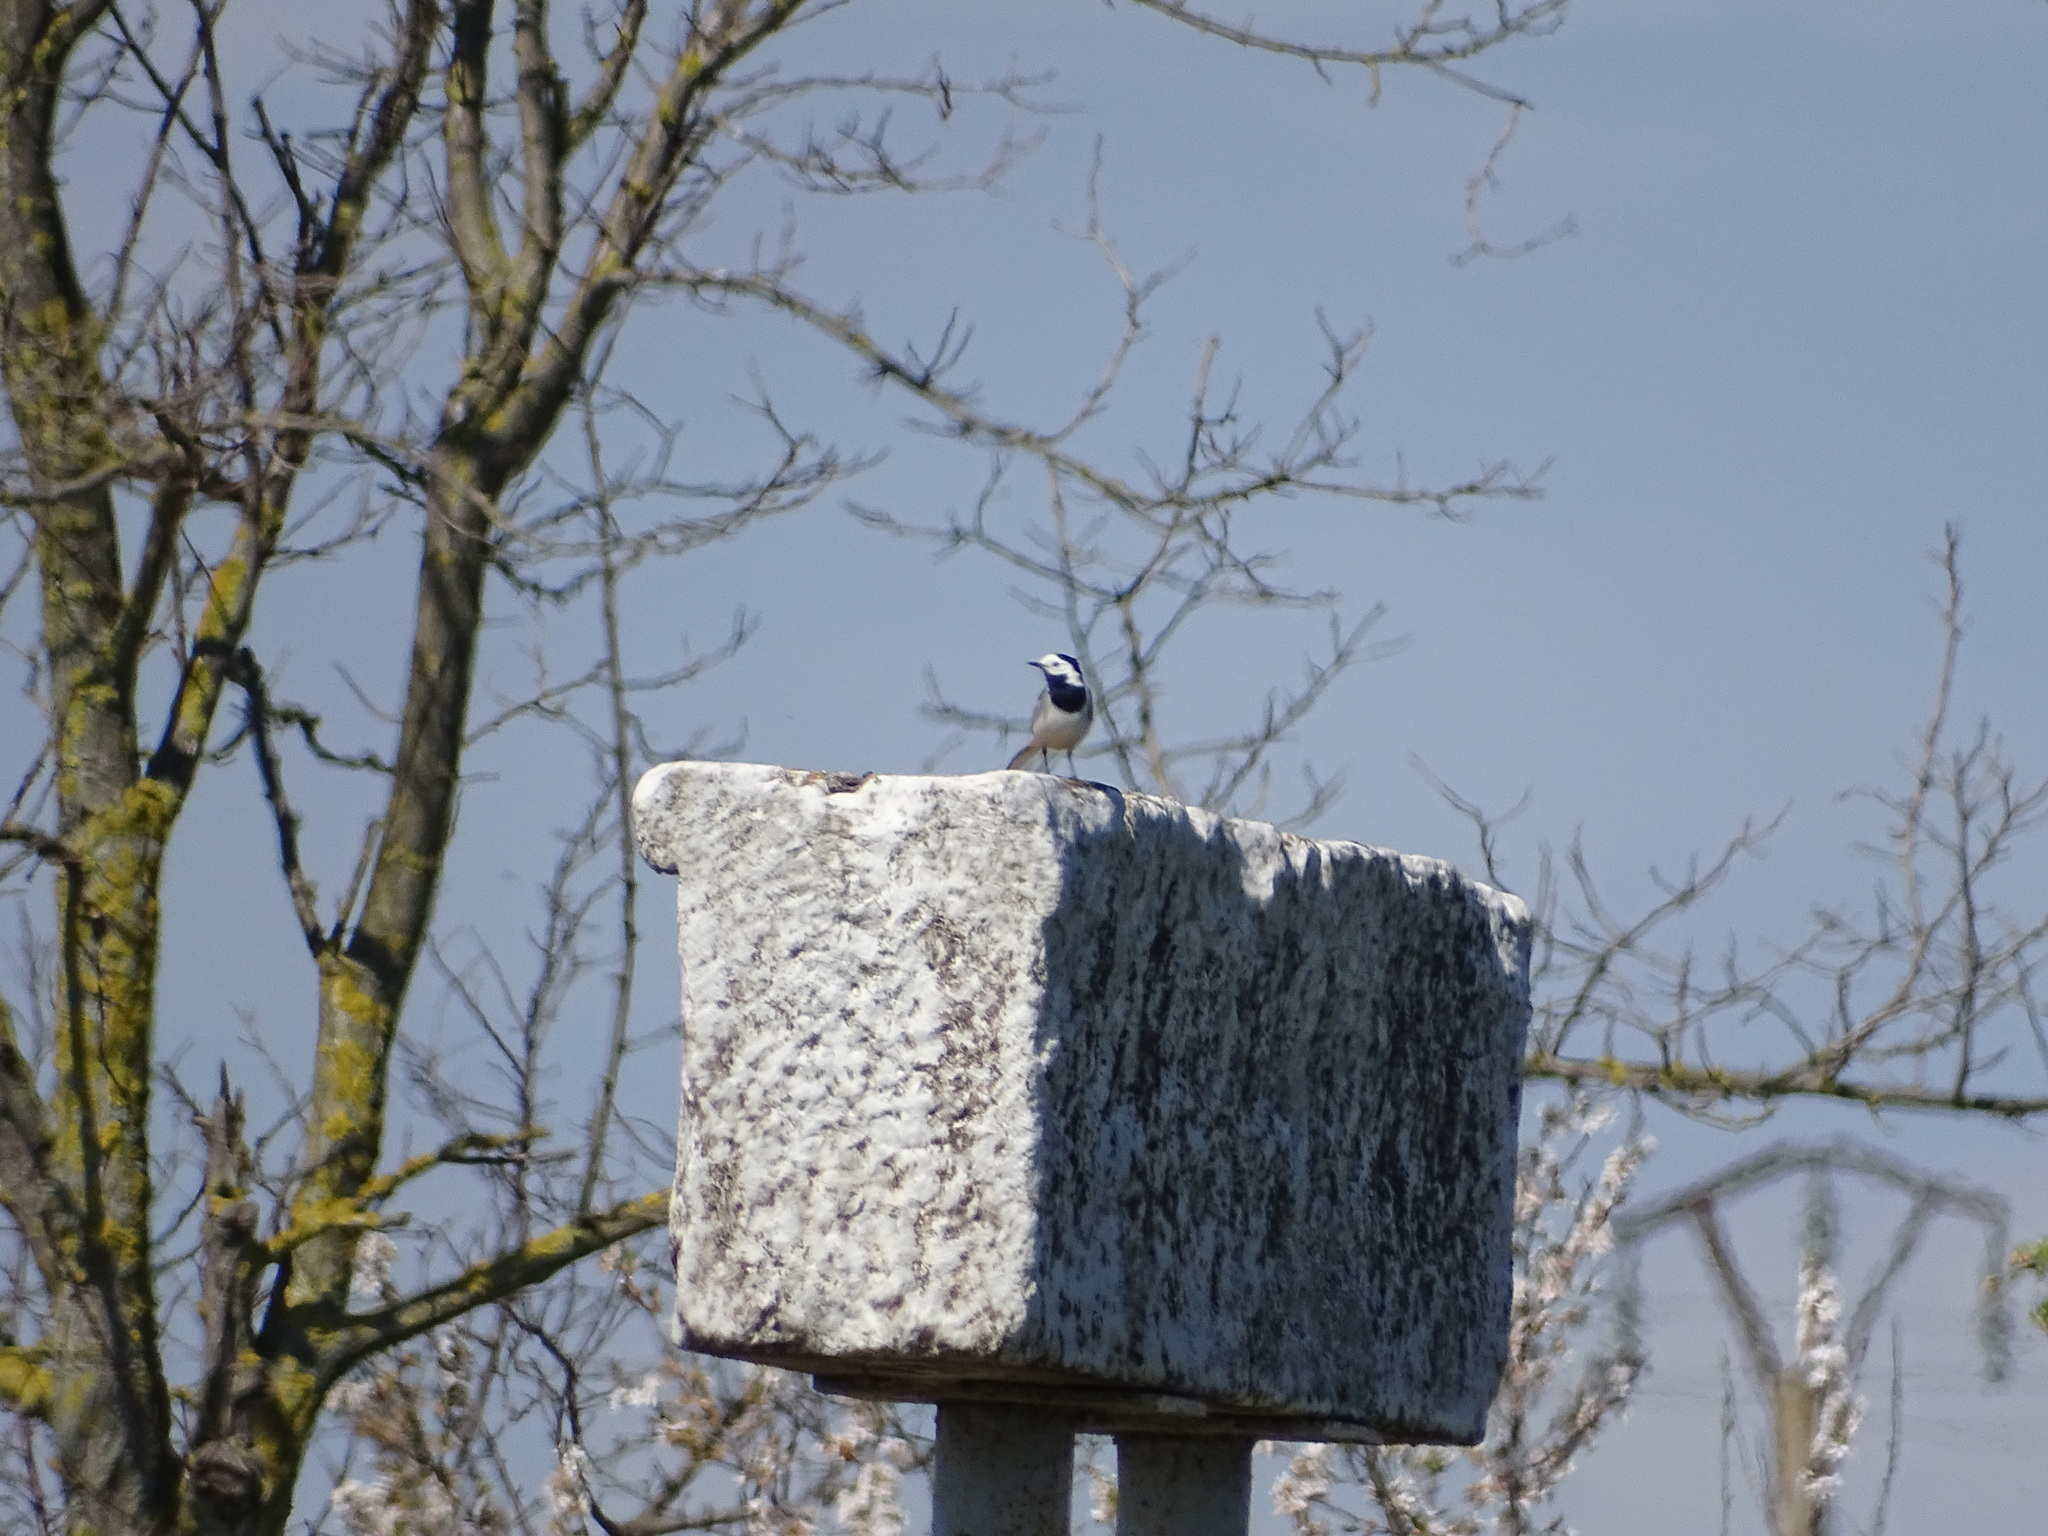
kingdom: Animalia
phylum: Chordata
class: Aves
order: Passeriformes
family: Motacillidae
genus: Motacilla
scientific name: Motacilla alba
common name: White wagtail
